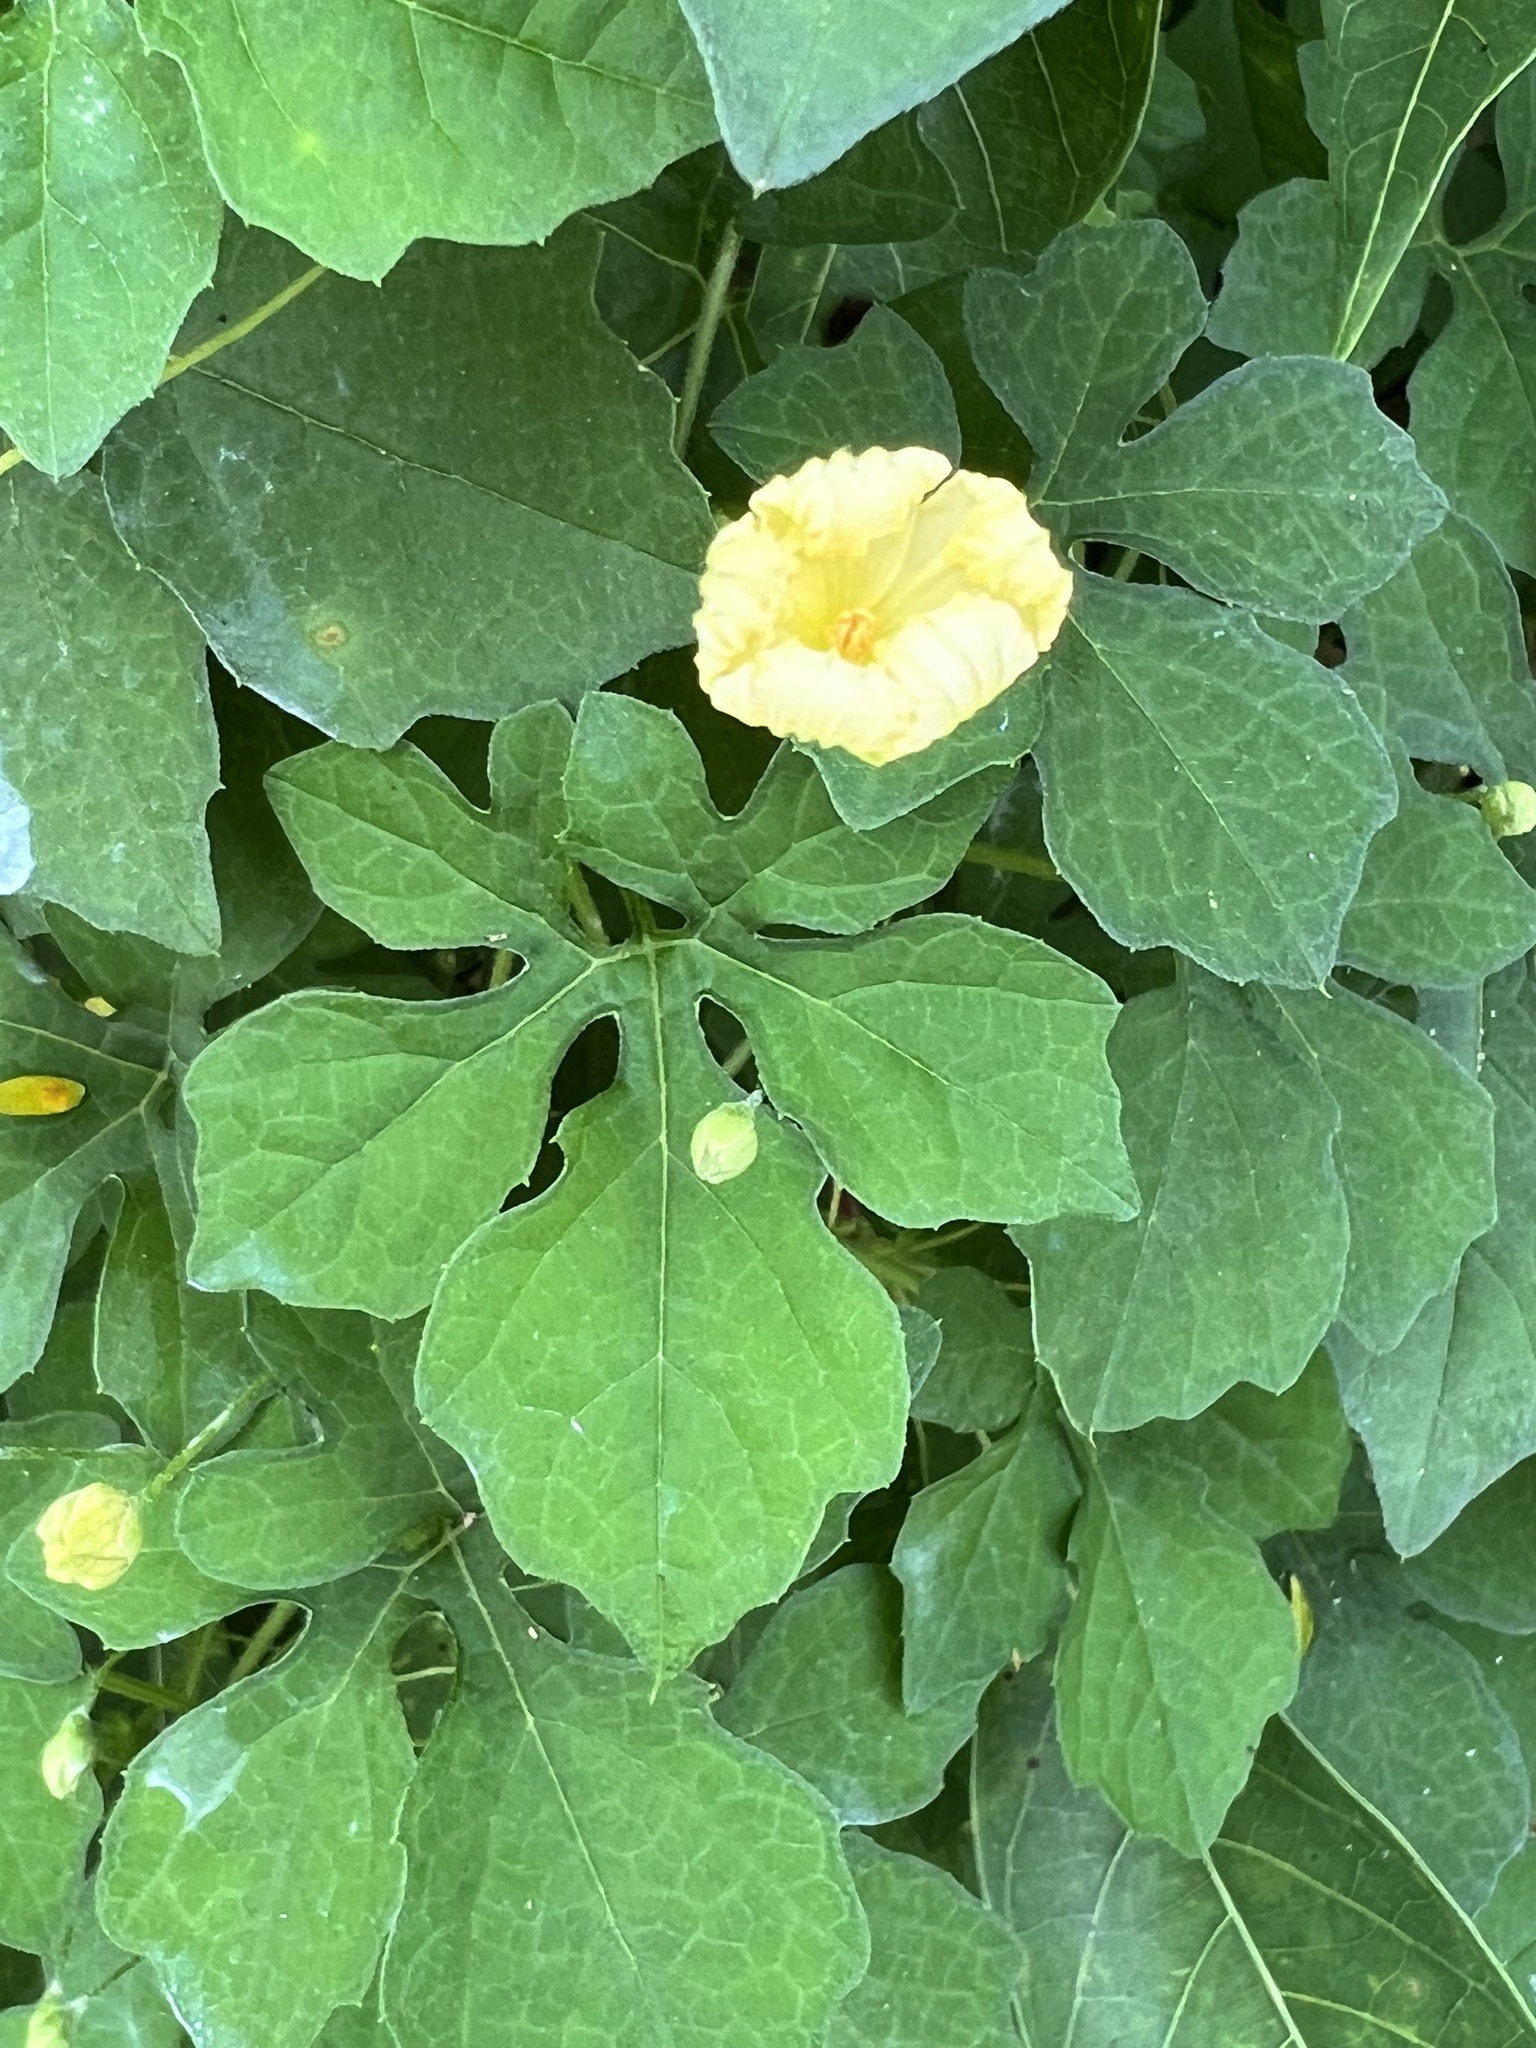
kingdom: Plantae
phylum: Tracheophyta
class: Magnoliopsida
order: Cucurbitales
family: Cucurbitaceae
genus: Momordica
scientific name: Momordica charantia
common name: Balsampear
